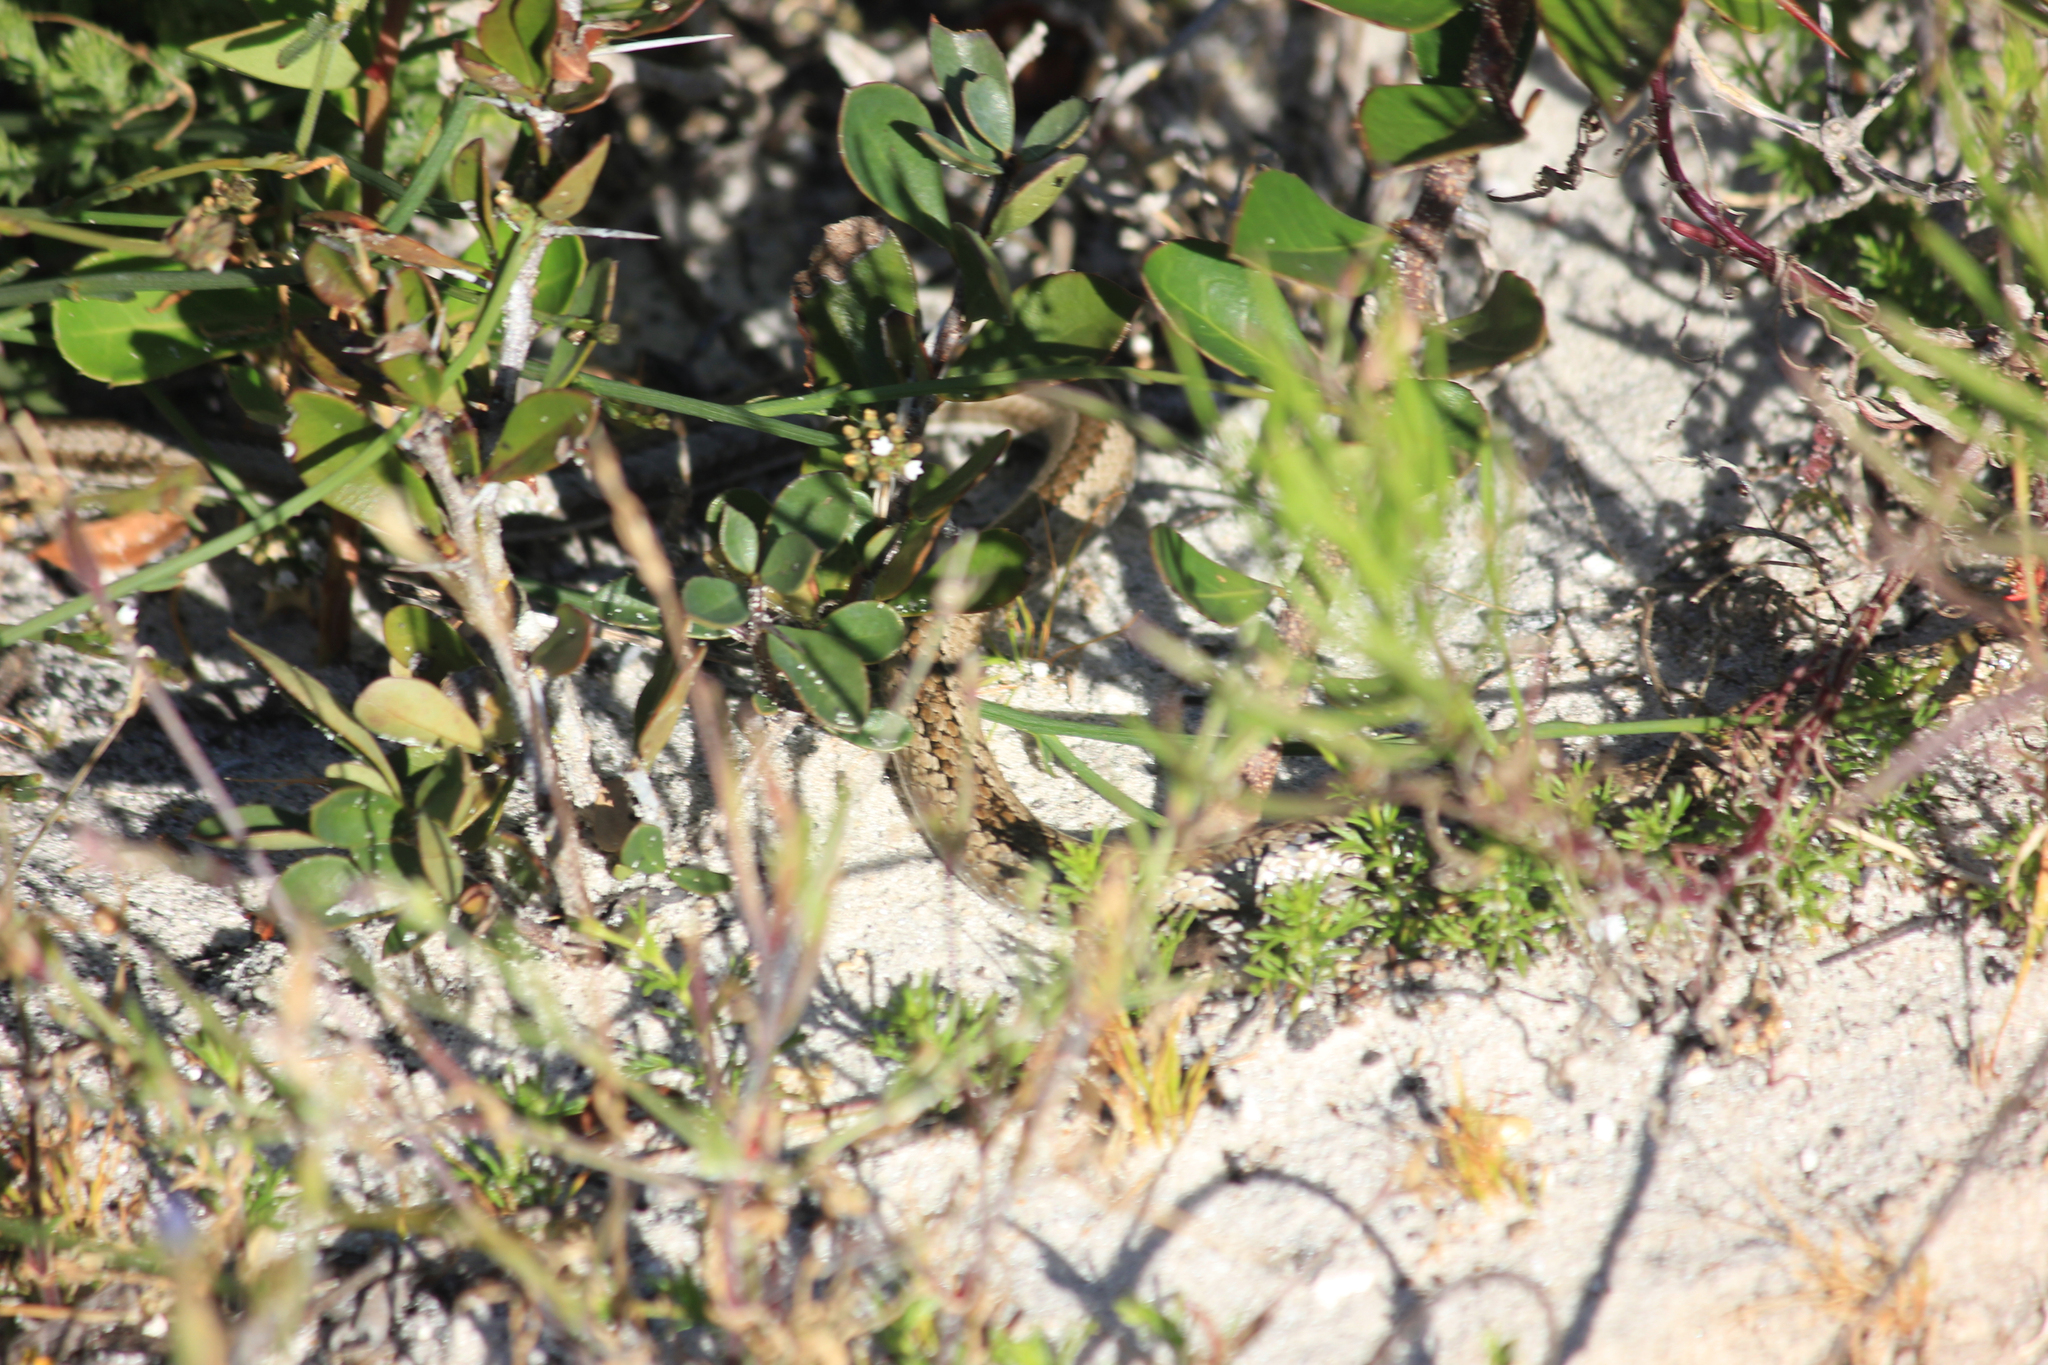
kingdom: Animalia
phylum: Chordata
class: Squamata
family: Psammophiidae
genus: Psammophis
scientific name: Psammophis crucifer
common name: Cross-marked grass snake
